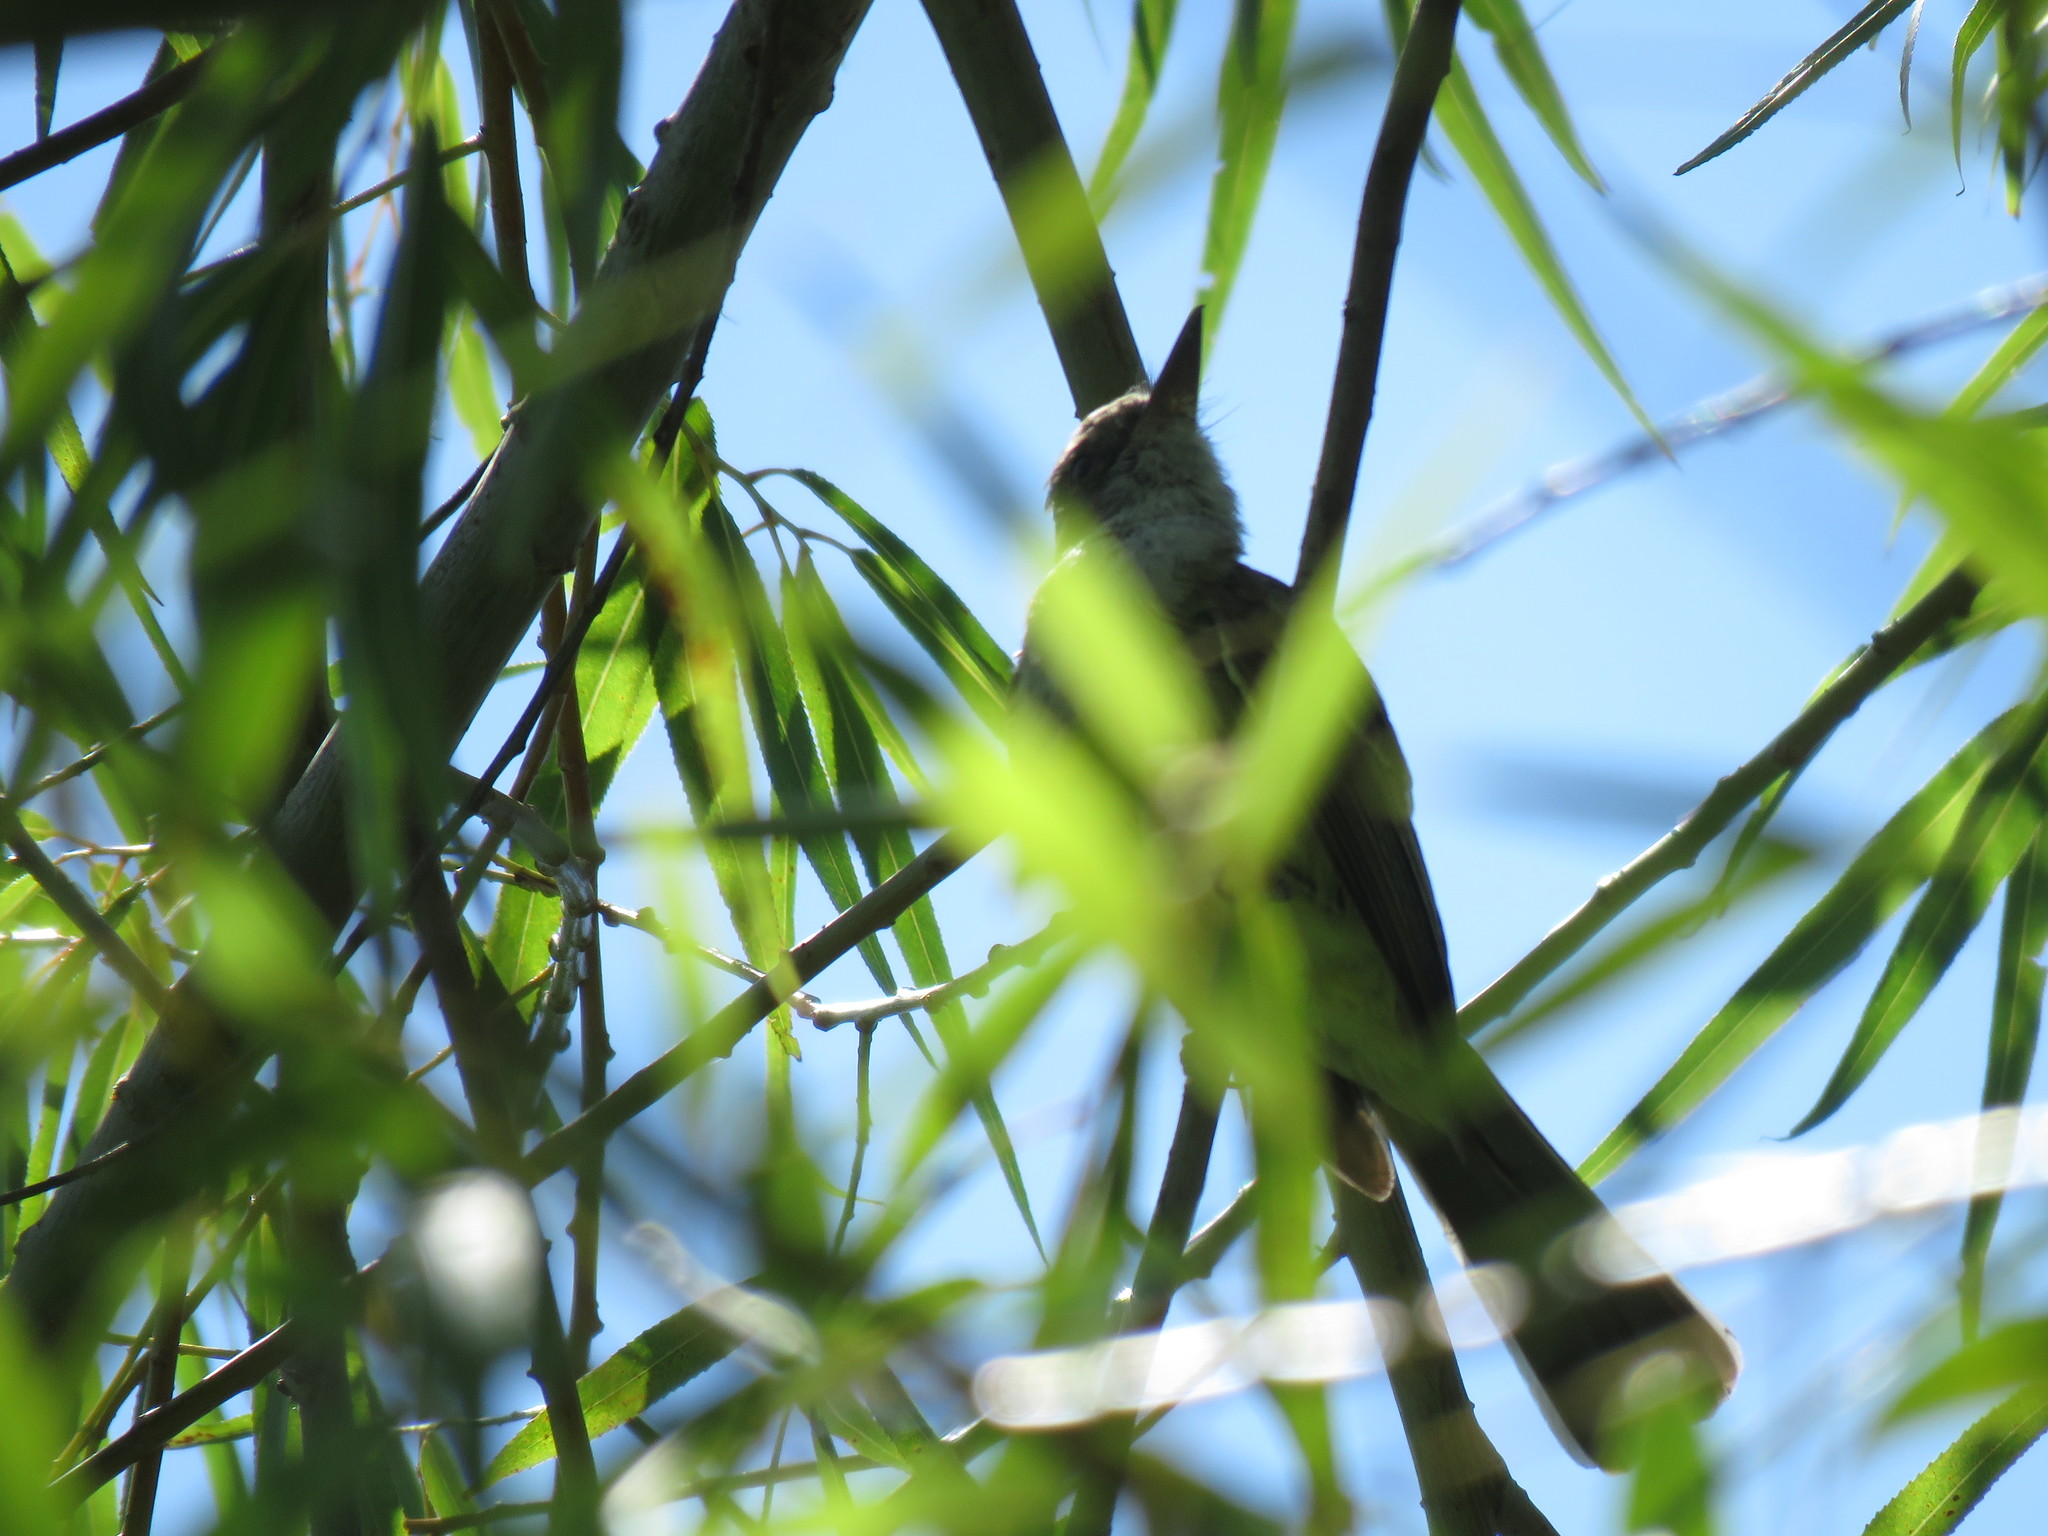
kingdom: Animalia
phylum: Chordata
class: Aves
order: Passeriformes
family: Tyrannidae
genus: Myiarchus
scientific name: Myiarchus swainsoni
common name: Swainson's flycatcher
